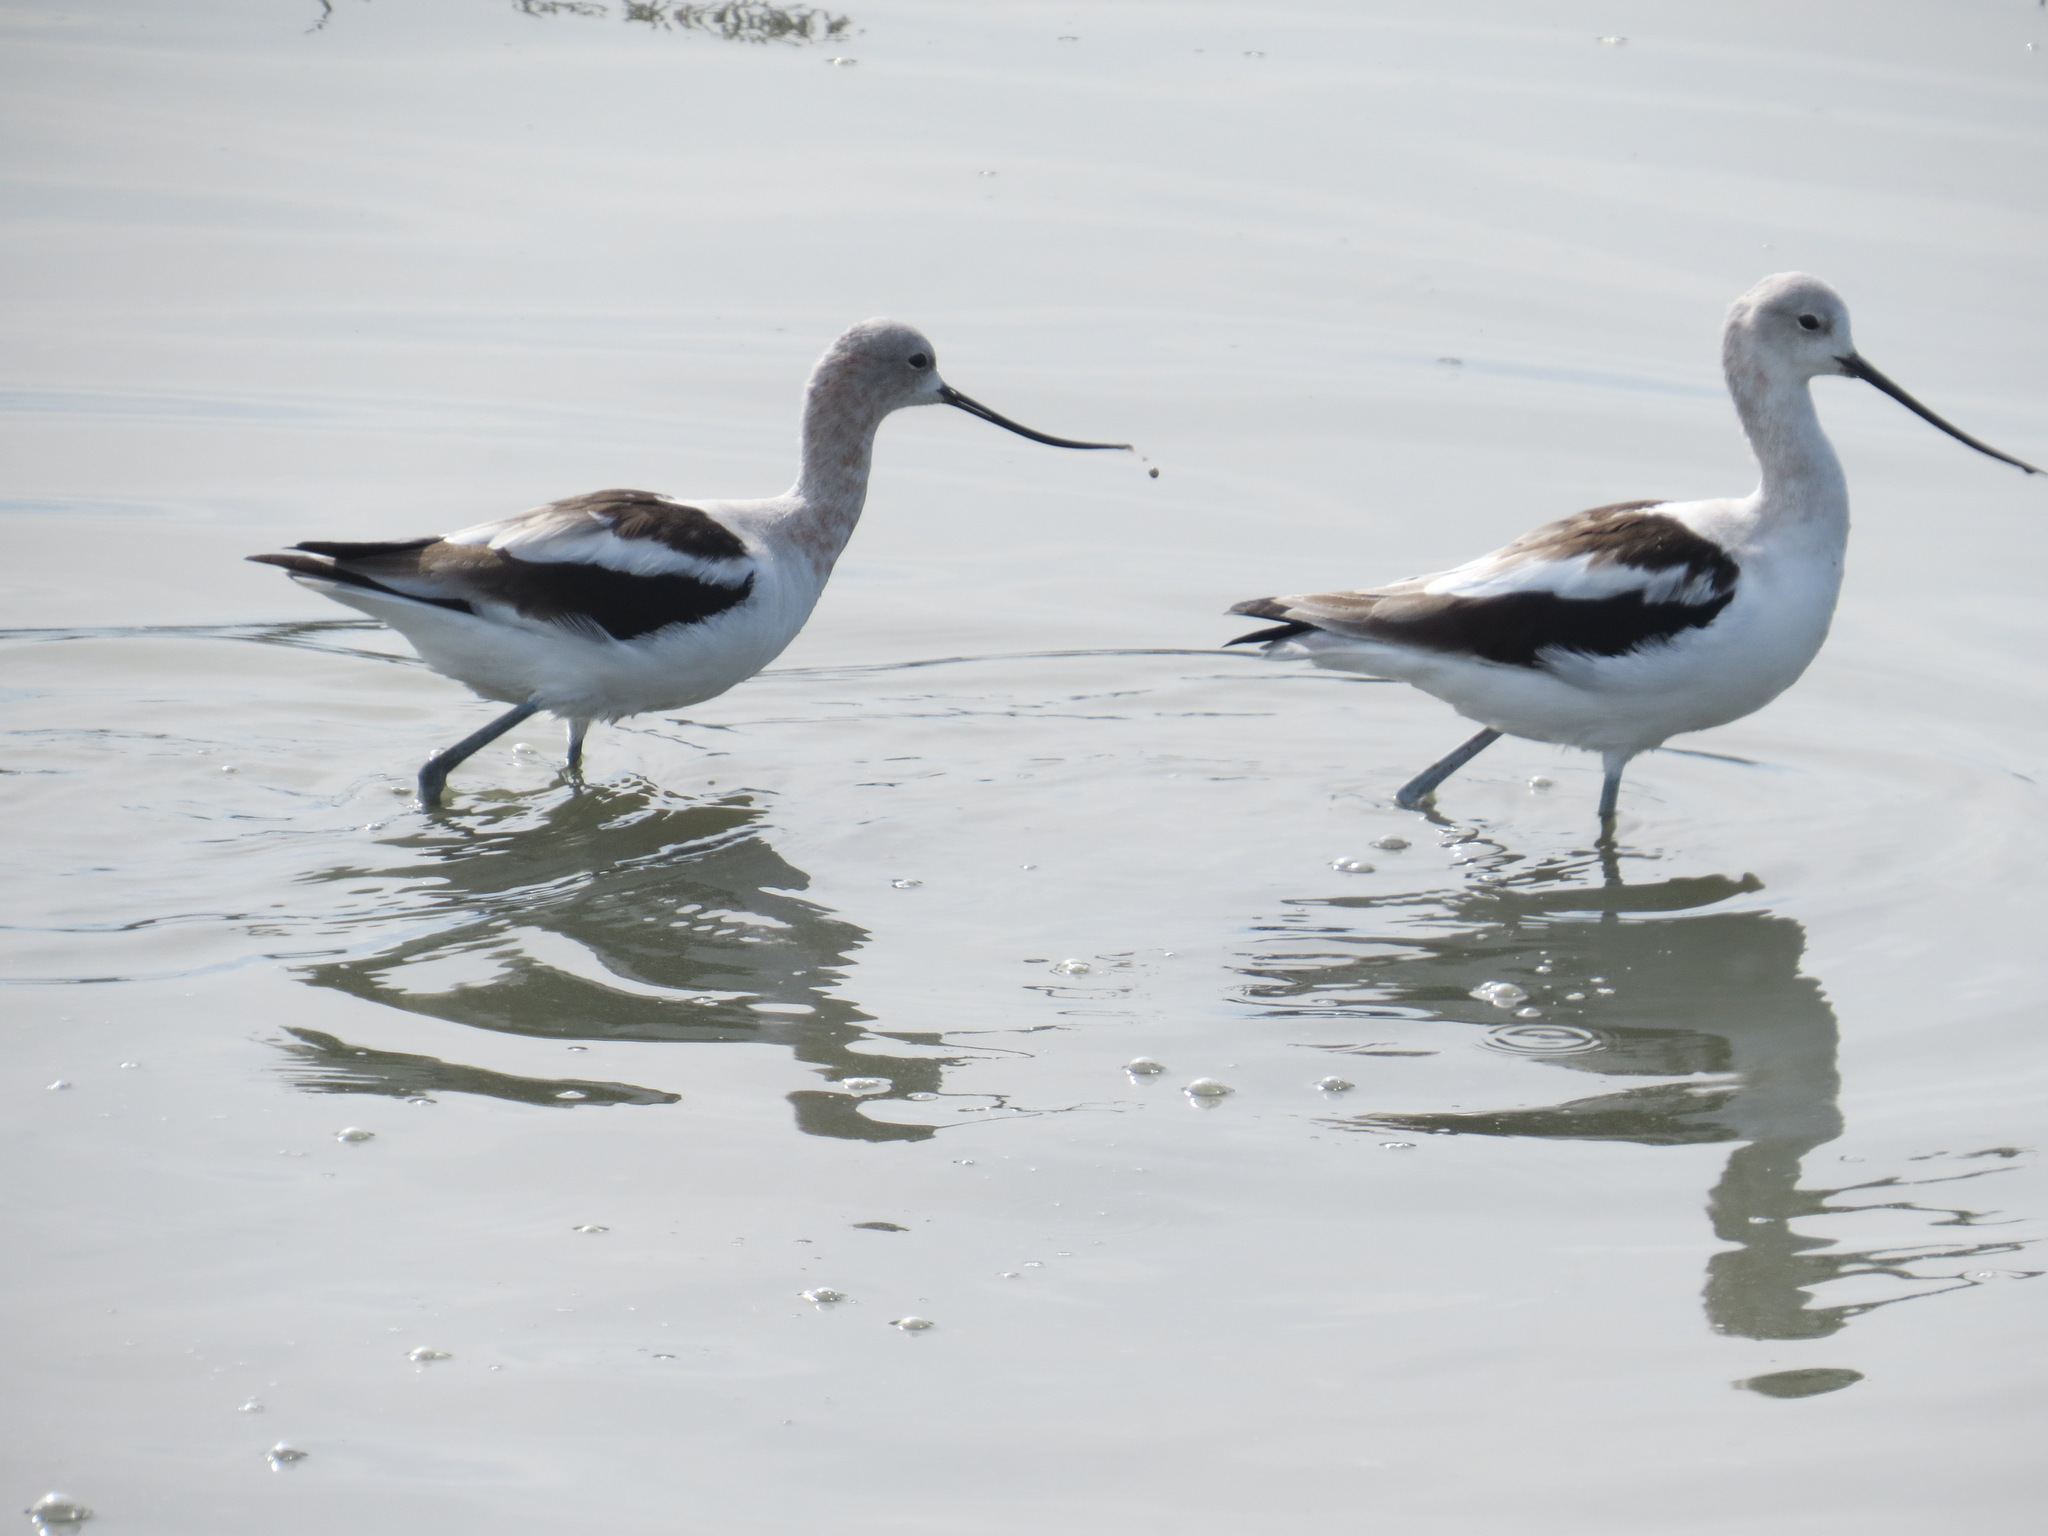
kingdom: Animalia
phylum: Chordata
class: Aves
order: Charadriiformes
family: Recurvirostridae
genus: Recurvirostra
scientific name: Recurvirostra americana
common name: American avocet
